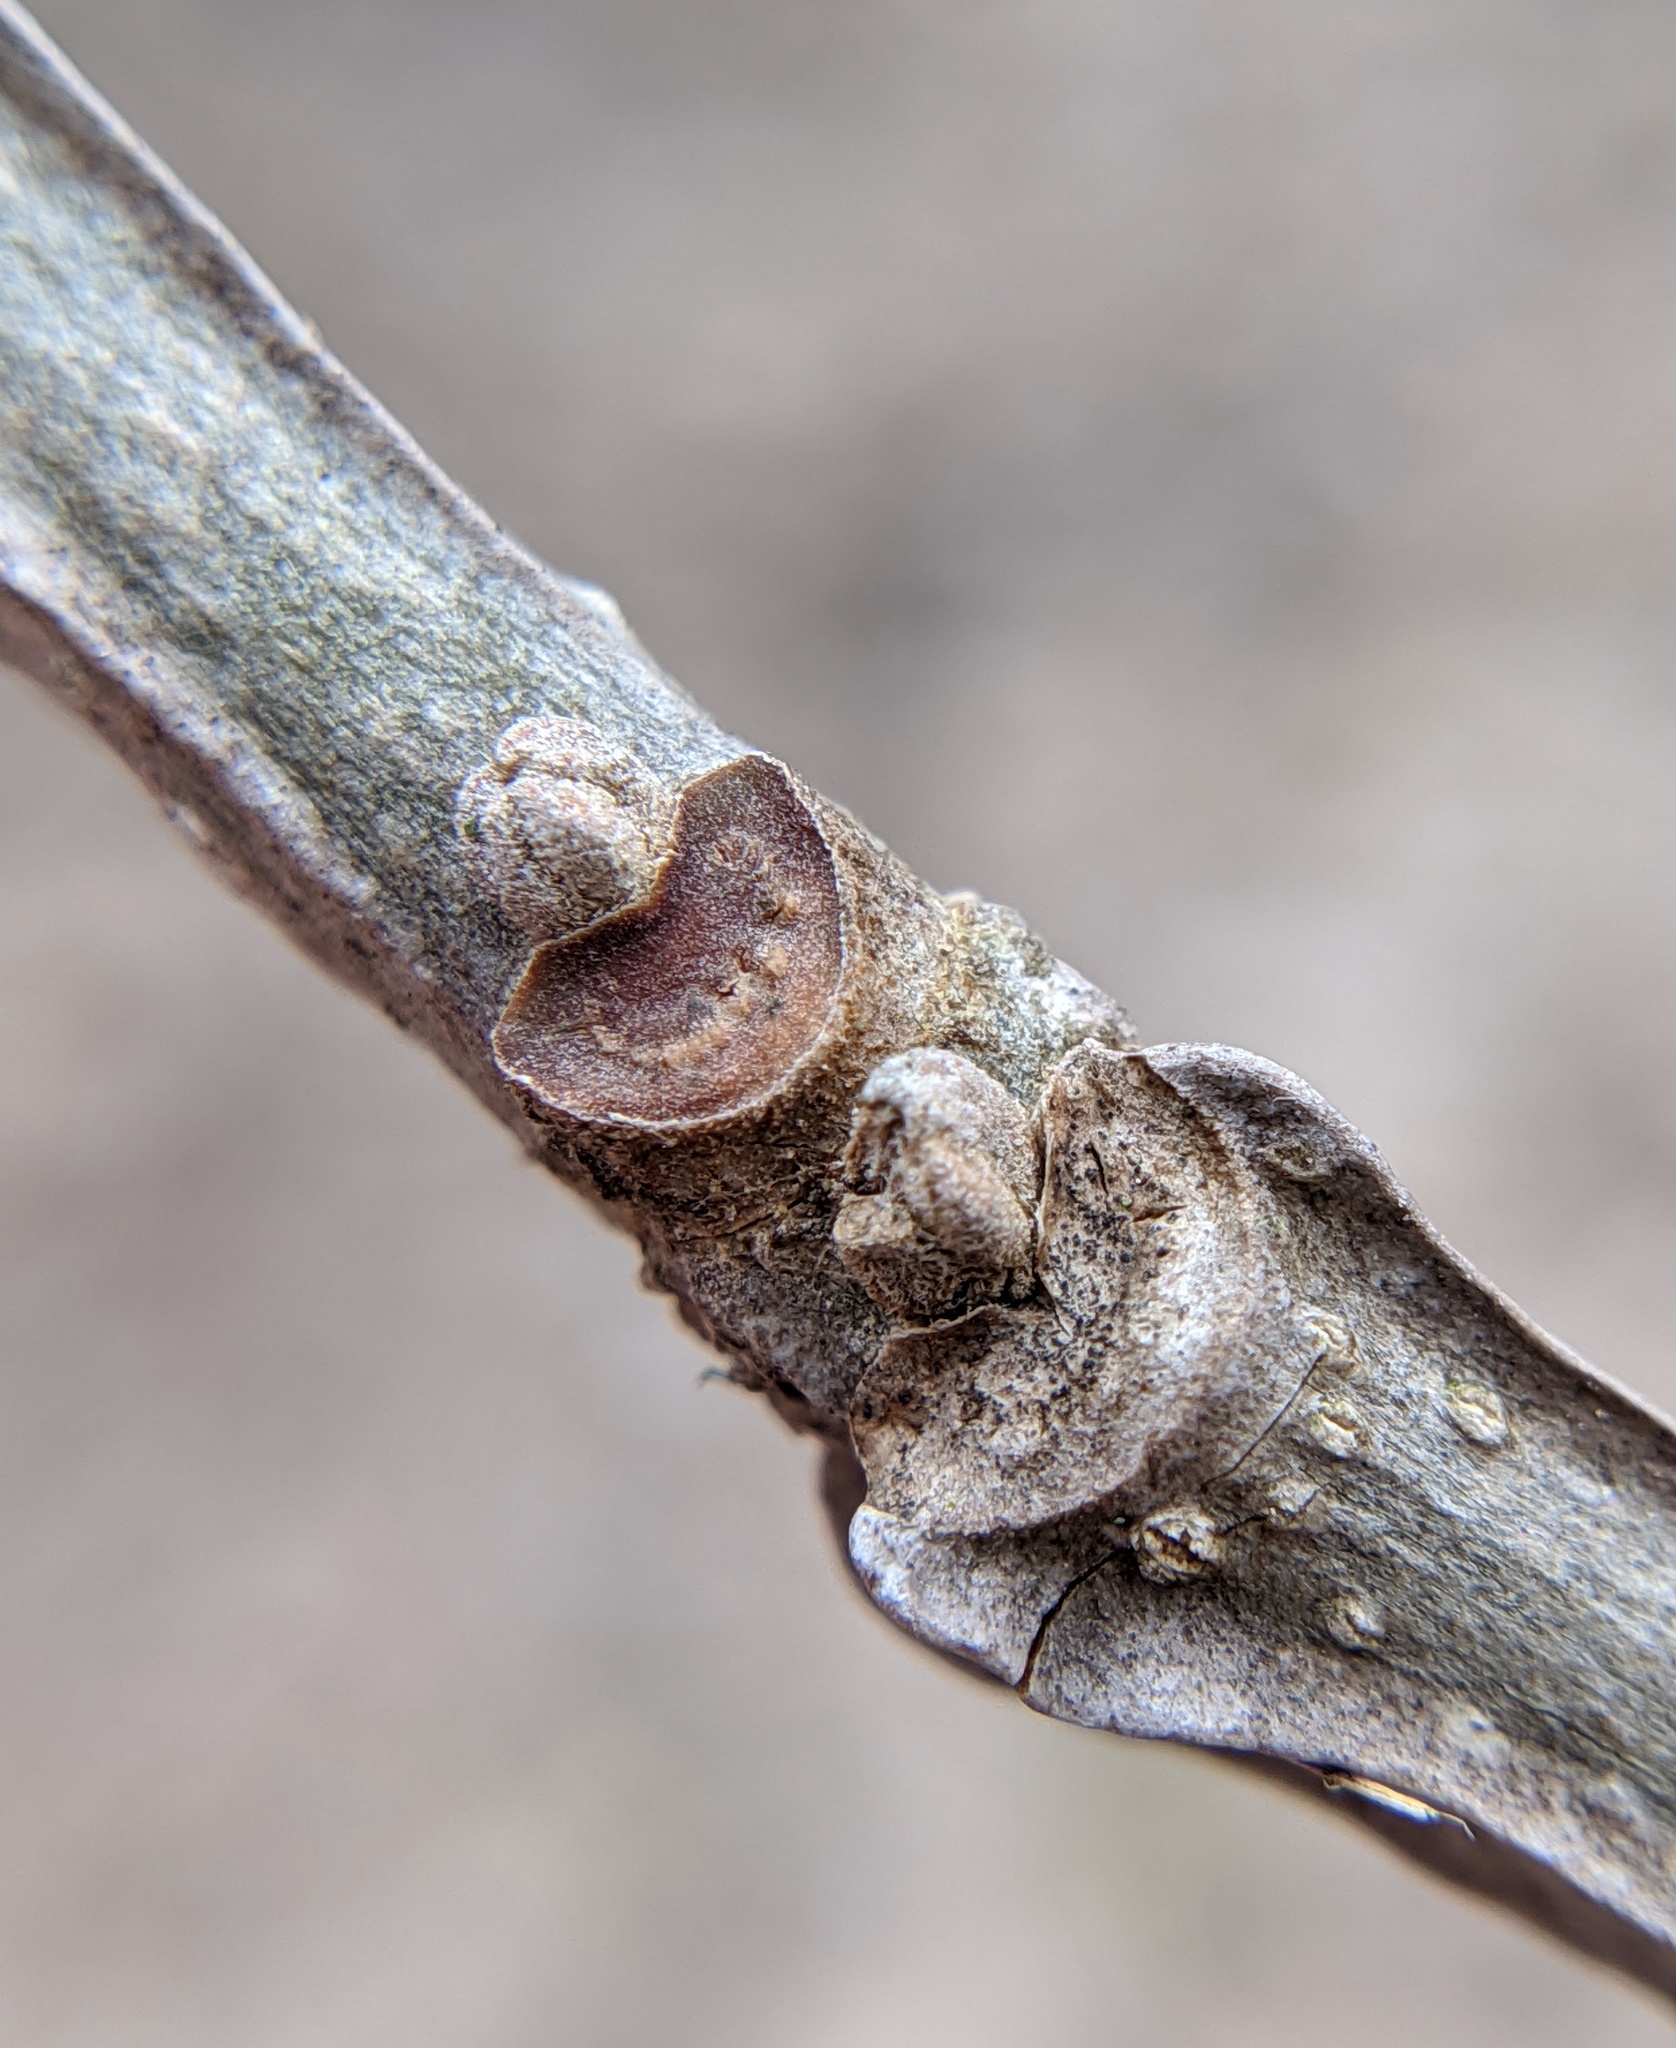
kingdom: Plantae
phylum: Tracheophyta
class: Magnoliopsida
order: Lamiales
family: Oleaceae
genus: Fraxinus
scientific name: Fraxinus quadrangulata
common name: Blue ash
